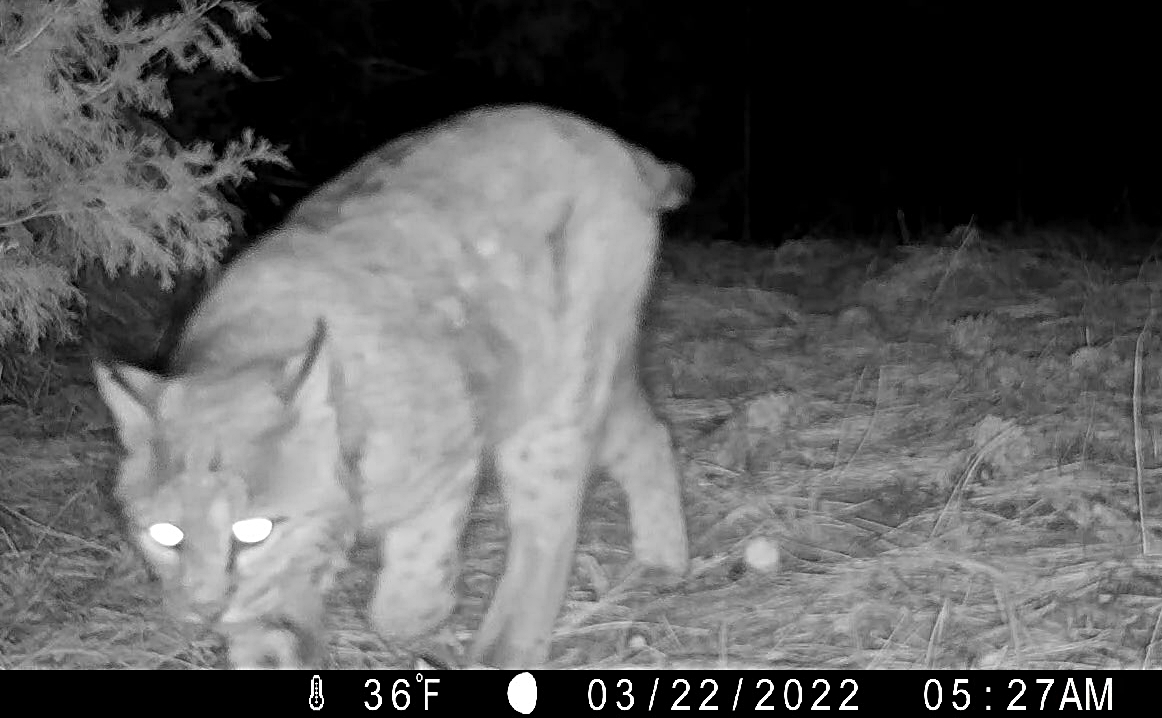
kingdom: Animalia
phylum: Chordata
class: Mammalia
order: Carnivora
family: Felidae
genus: Lynx
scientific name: Lynx rufus
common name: Bobcat
